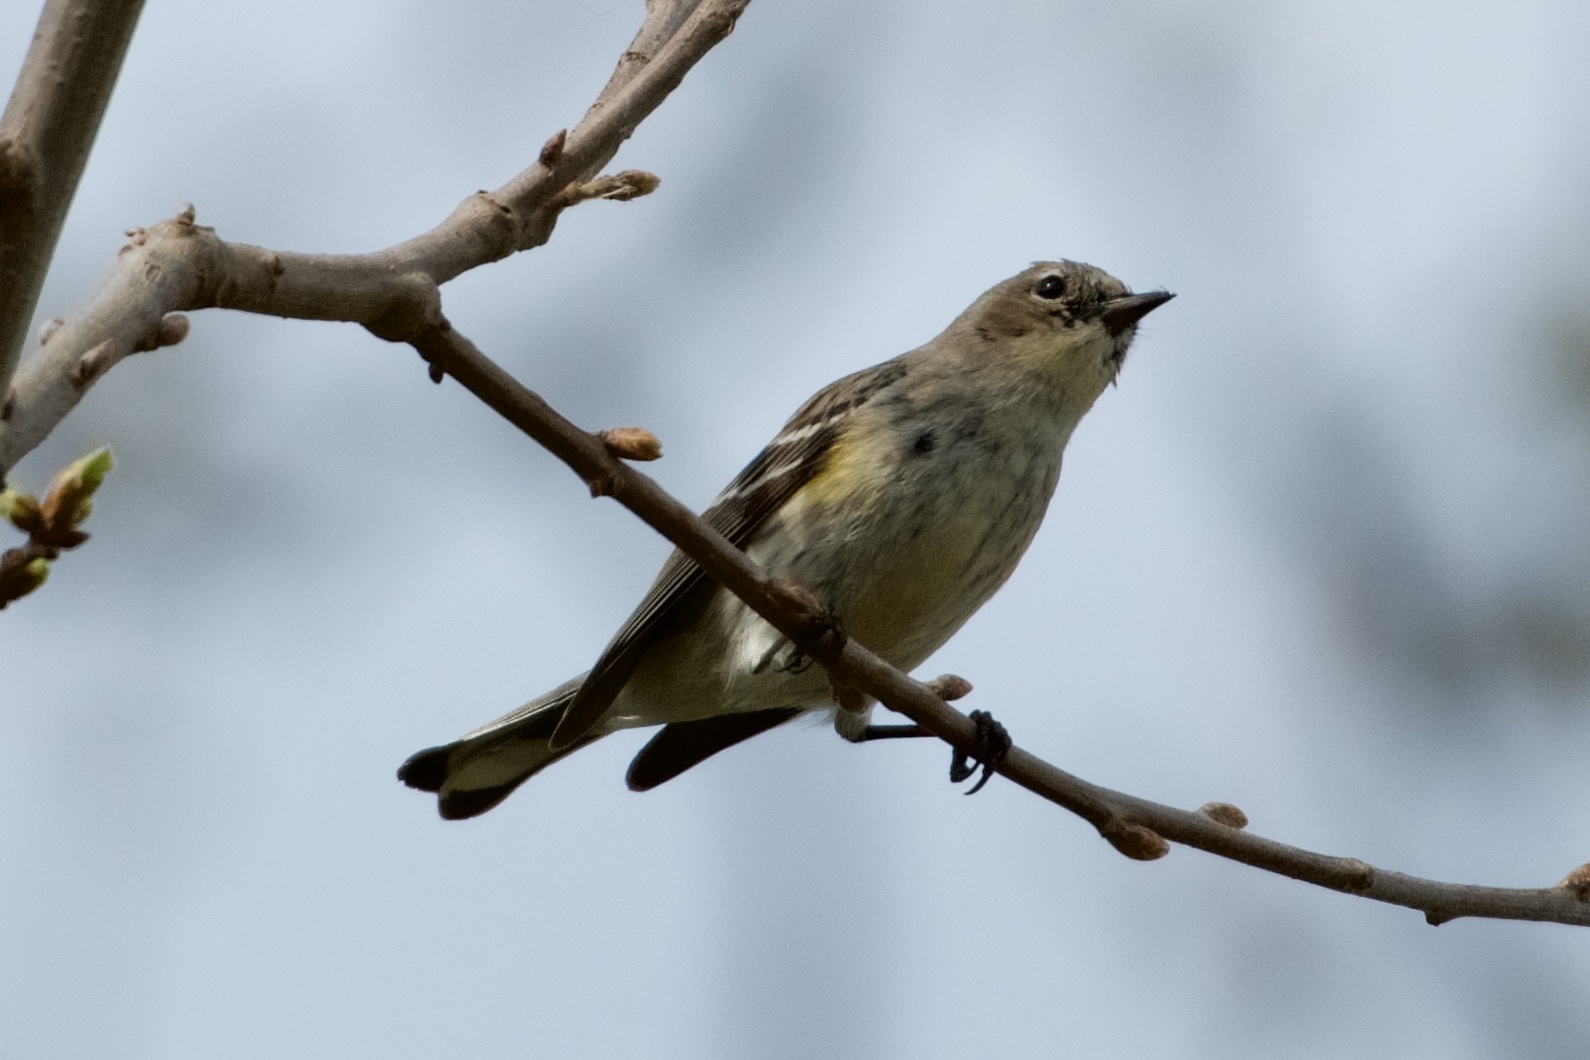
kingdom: Animalia
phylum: Chordata
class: Aves
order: Passeriformes
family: Parulidae
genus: Setophaga
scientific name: Setophaga coronata
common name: Myrtle warbler
